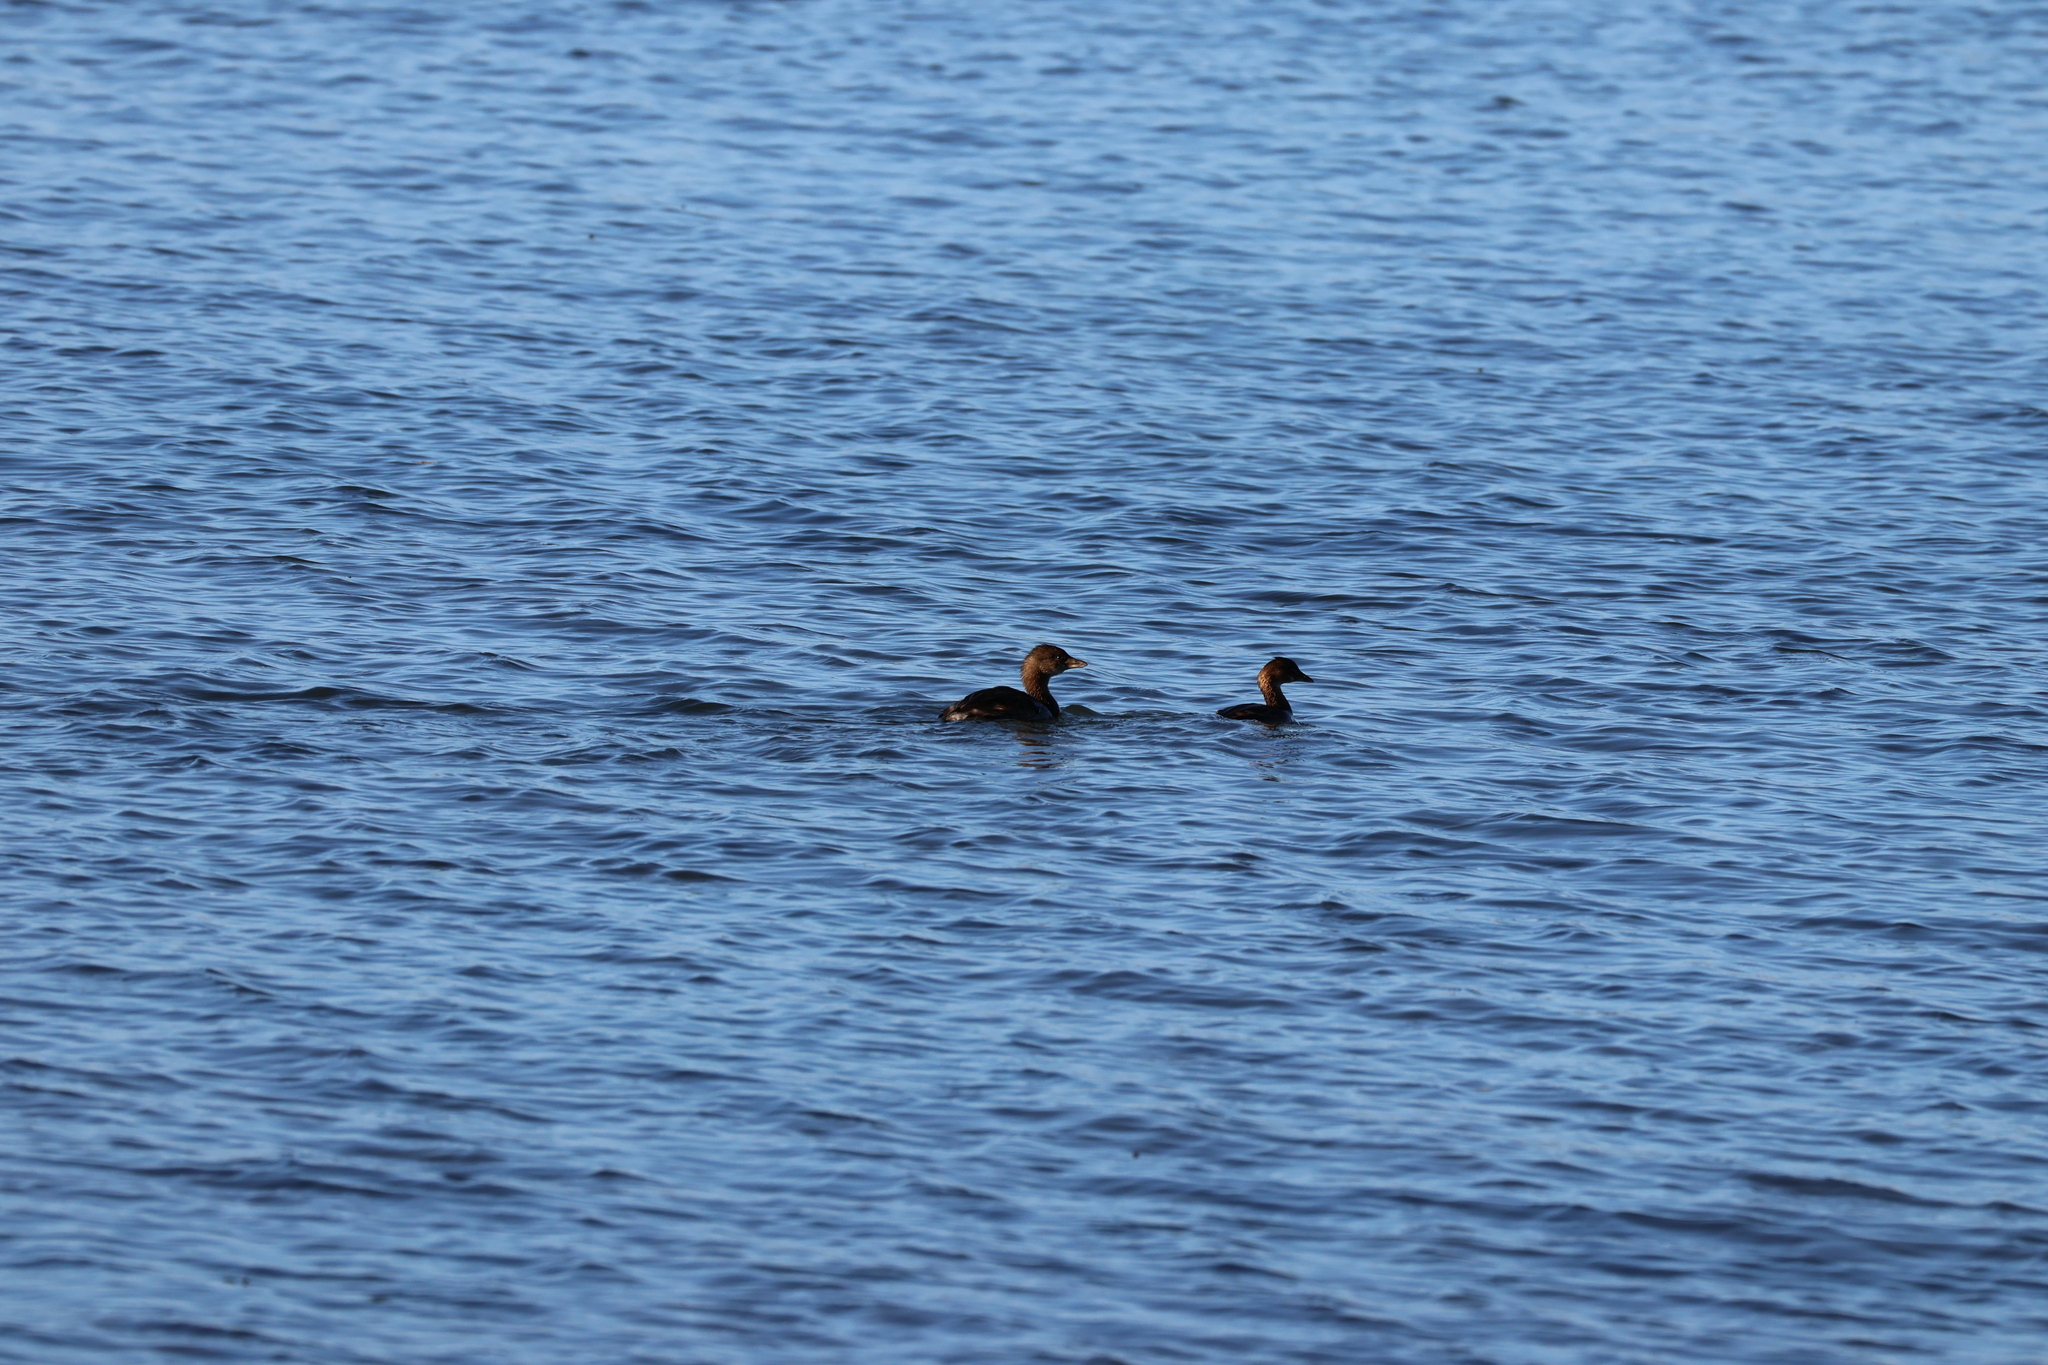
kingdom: Animalia
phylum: Chordata
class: Aves
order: Podicipediformes
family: Podicipedidae
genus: Podilymbus
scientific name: Podilymbus podiceps
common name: Pied-billed grebe
